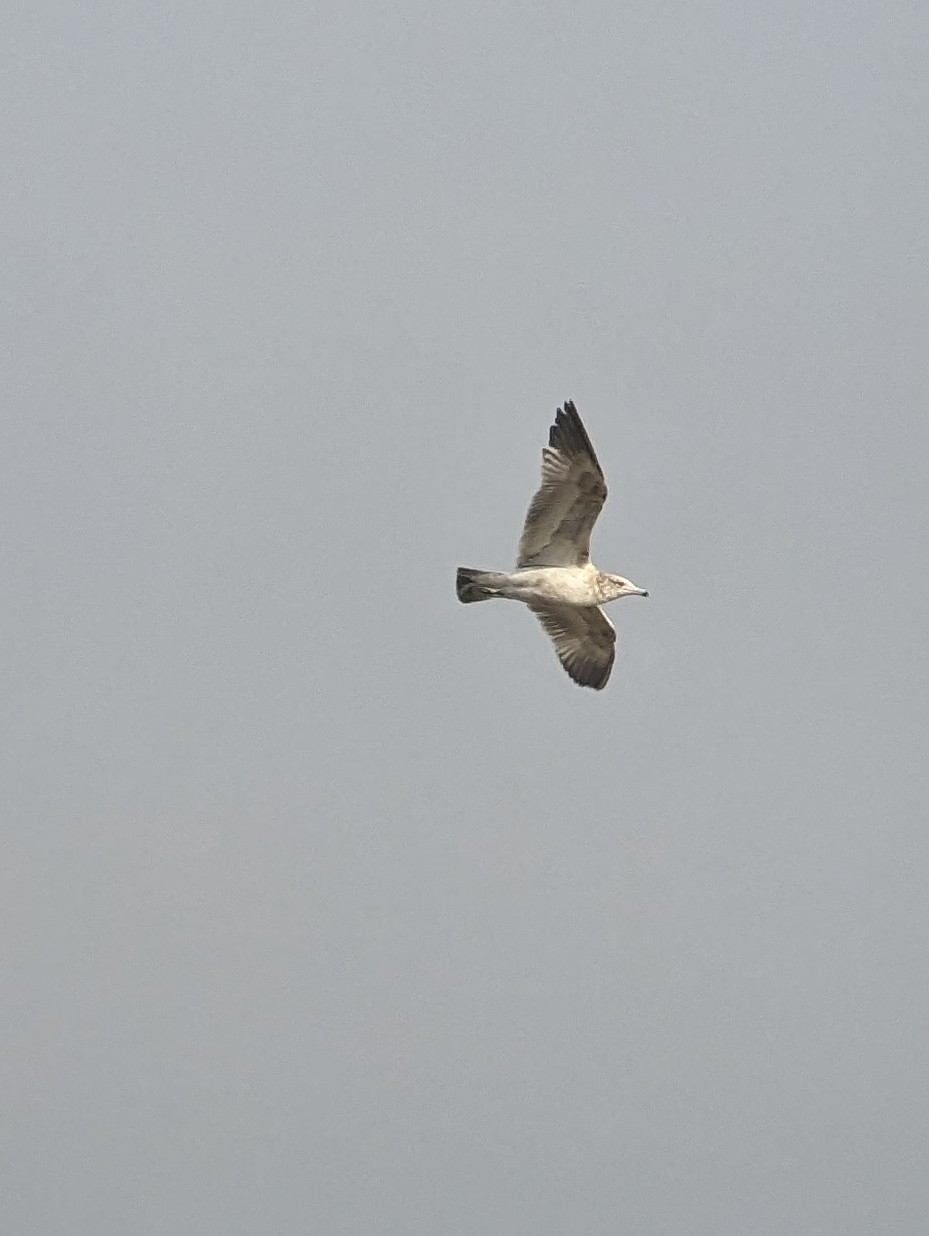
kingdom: Animalia
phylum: Chordata
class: Aves
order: Charadriiformes
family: Laridae
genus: Larus
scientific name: Larus californicus
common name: California gull
